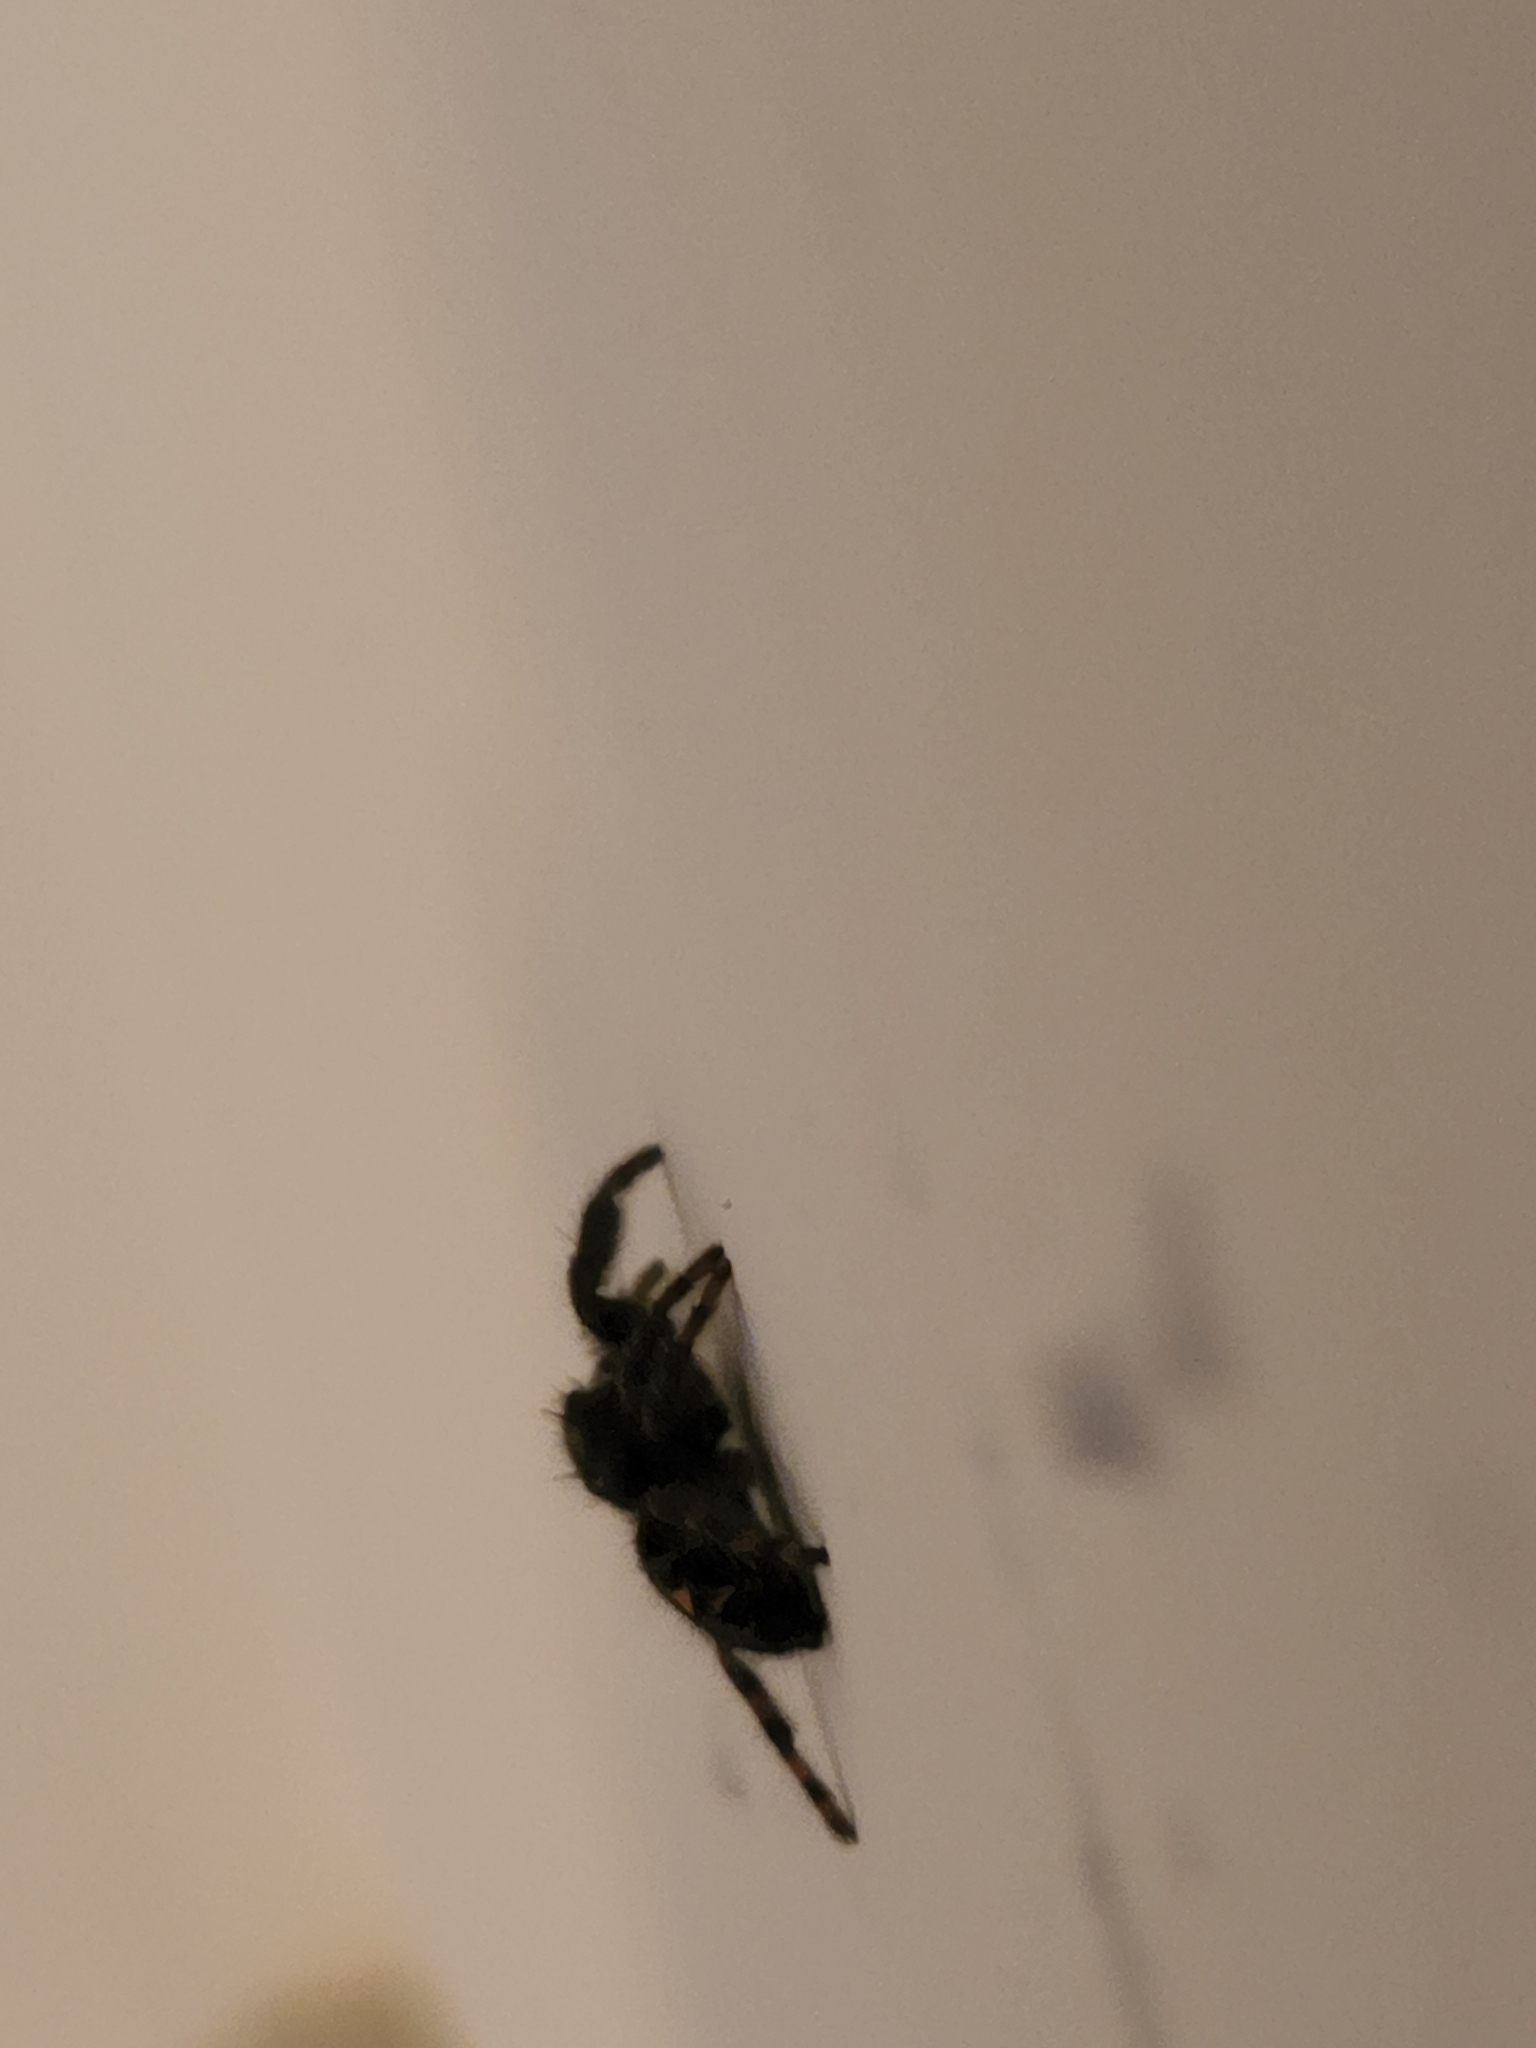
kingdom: Animalia
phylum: Arthropoda
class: Arachnida
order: Araneae
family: Salticidae
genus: Phidippus
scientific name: Phidippus audax
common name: Bold jumper
